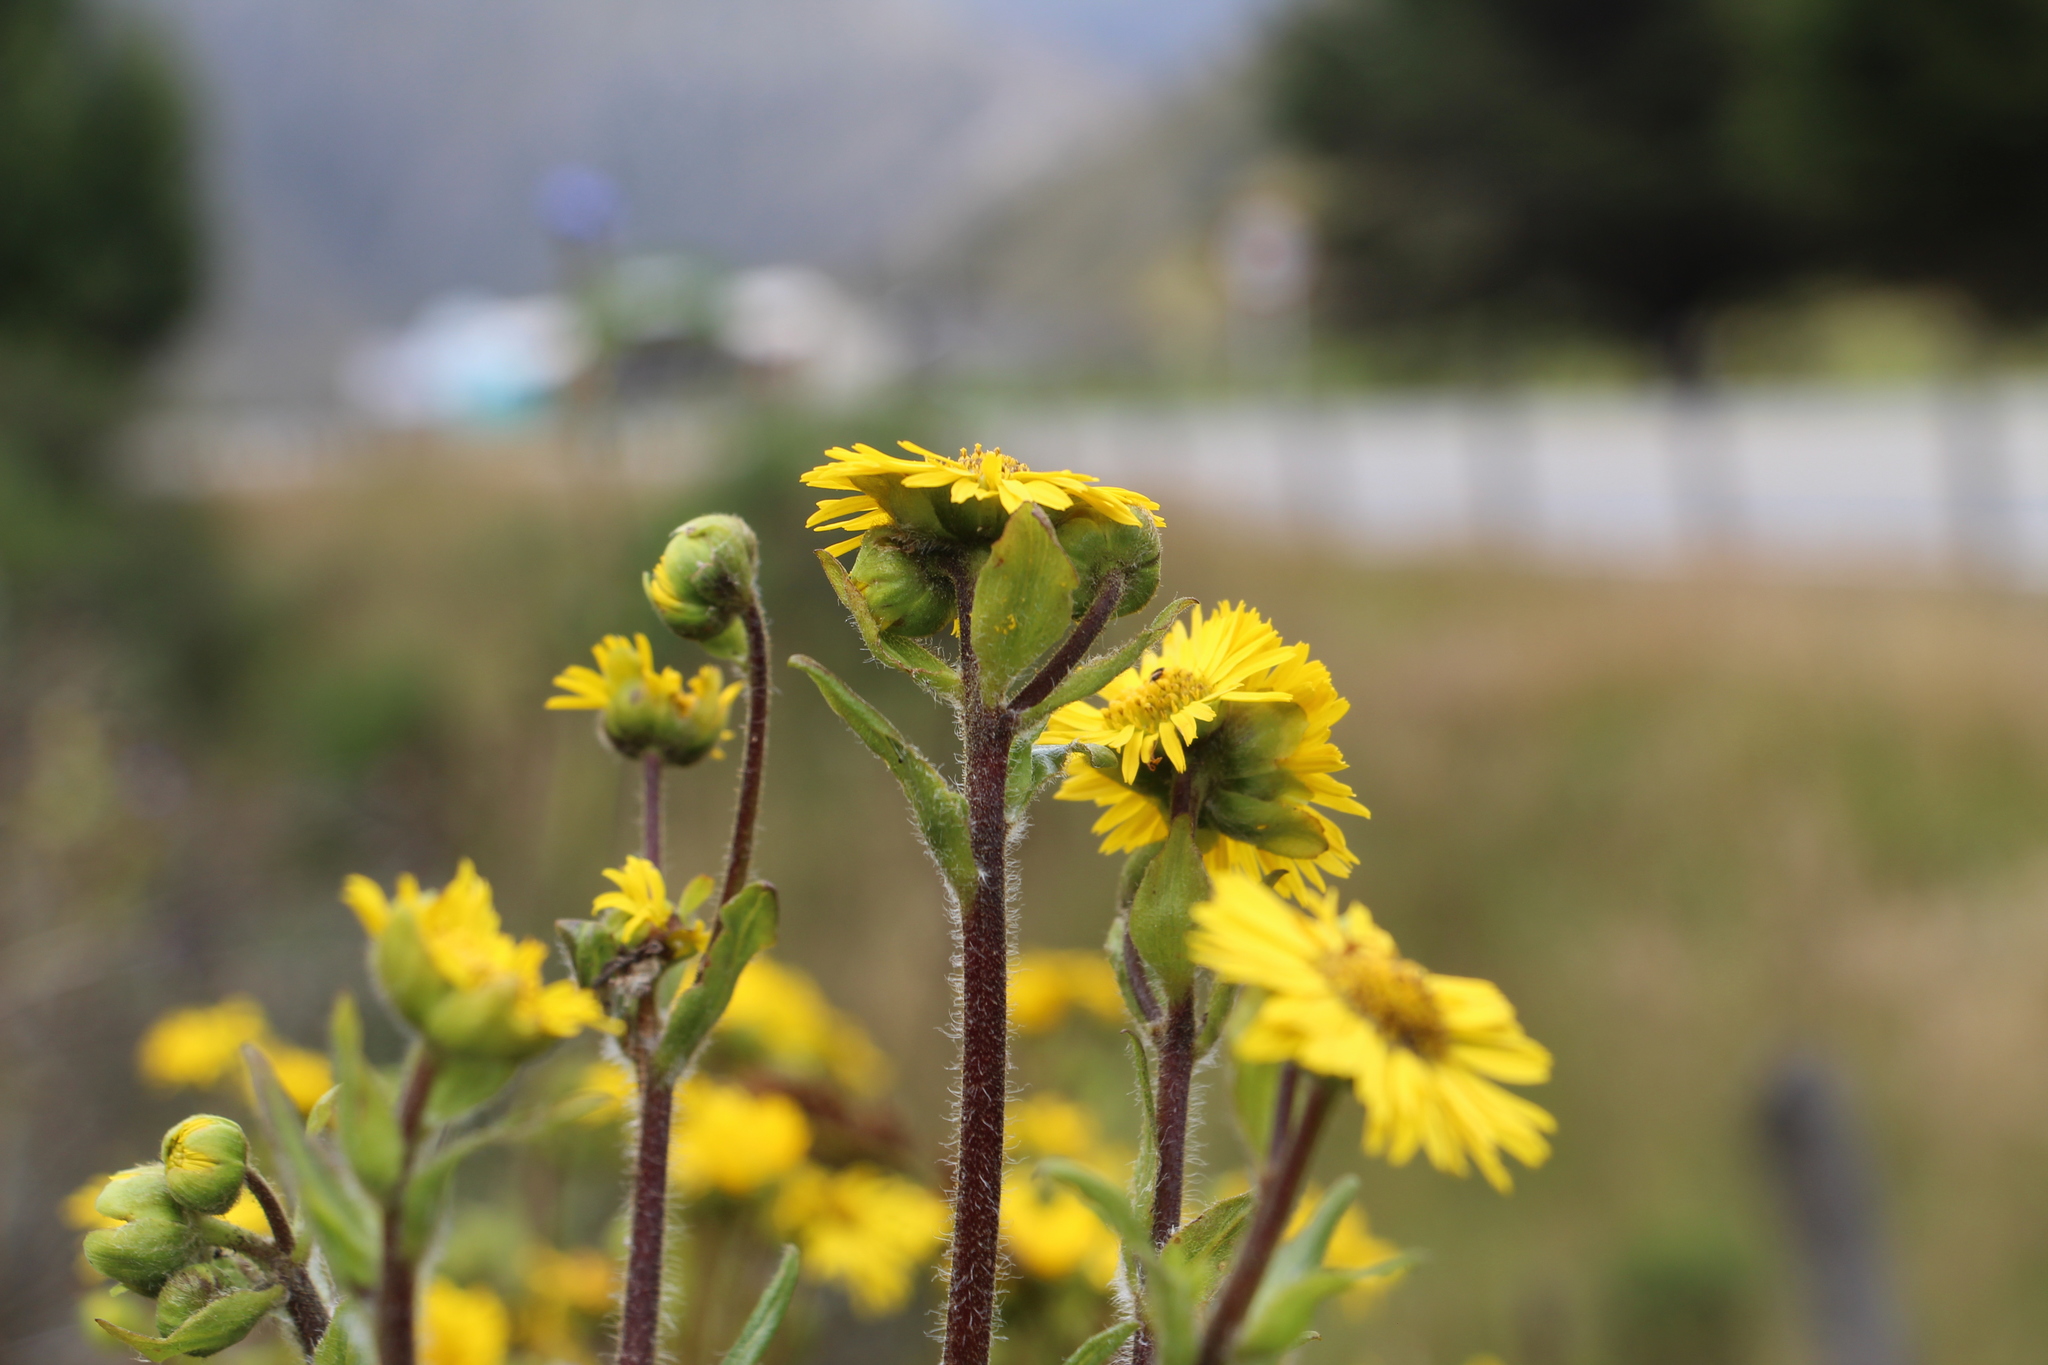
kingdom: Plantae
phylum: Tracheophyta
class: Magnoliopsida
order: Asterales
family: Asteraceae
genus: Espeletia
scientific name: Espeletia glandulosa
